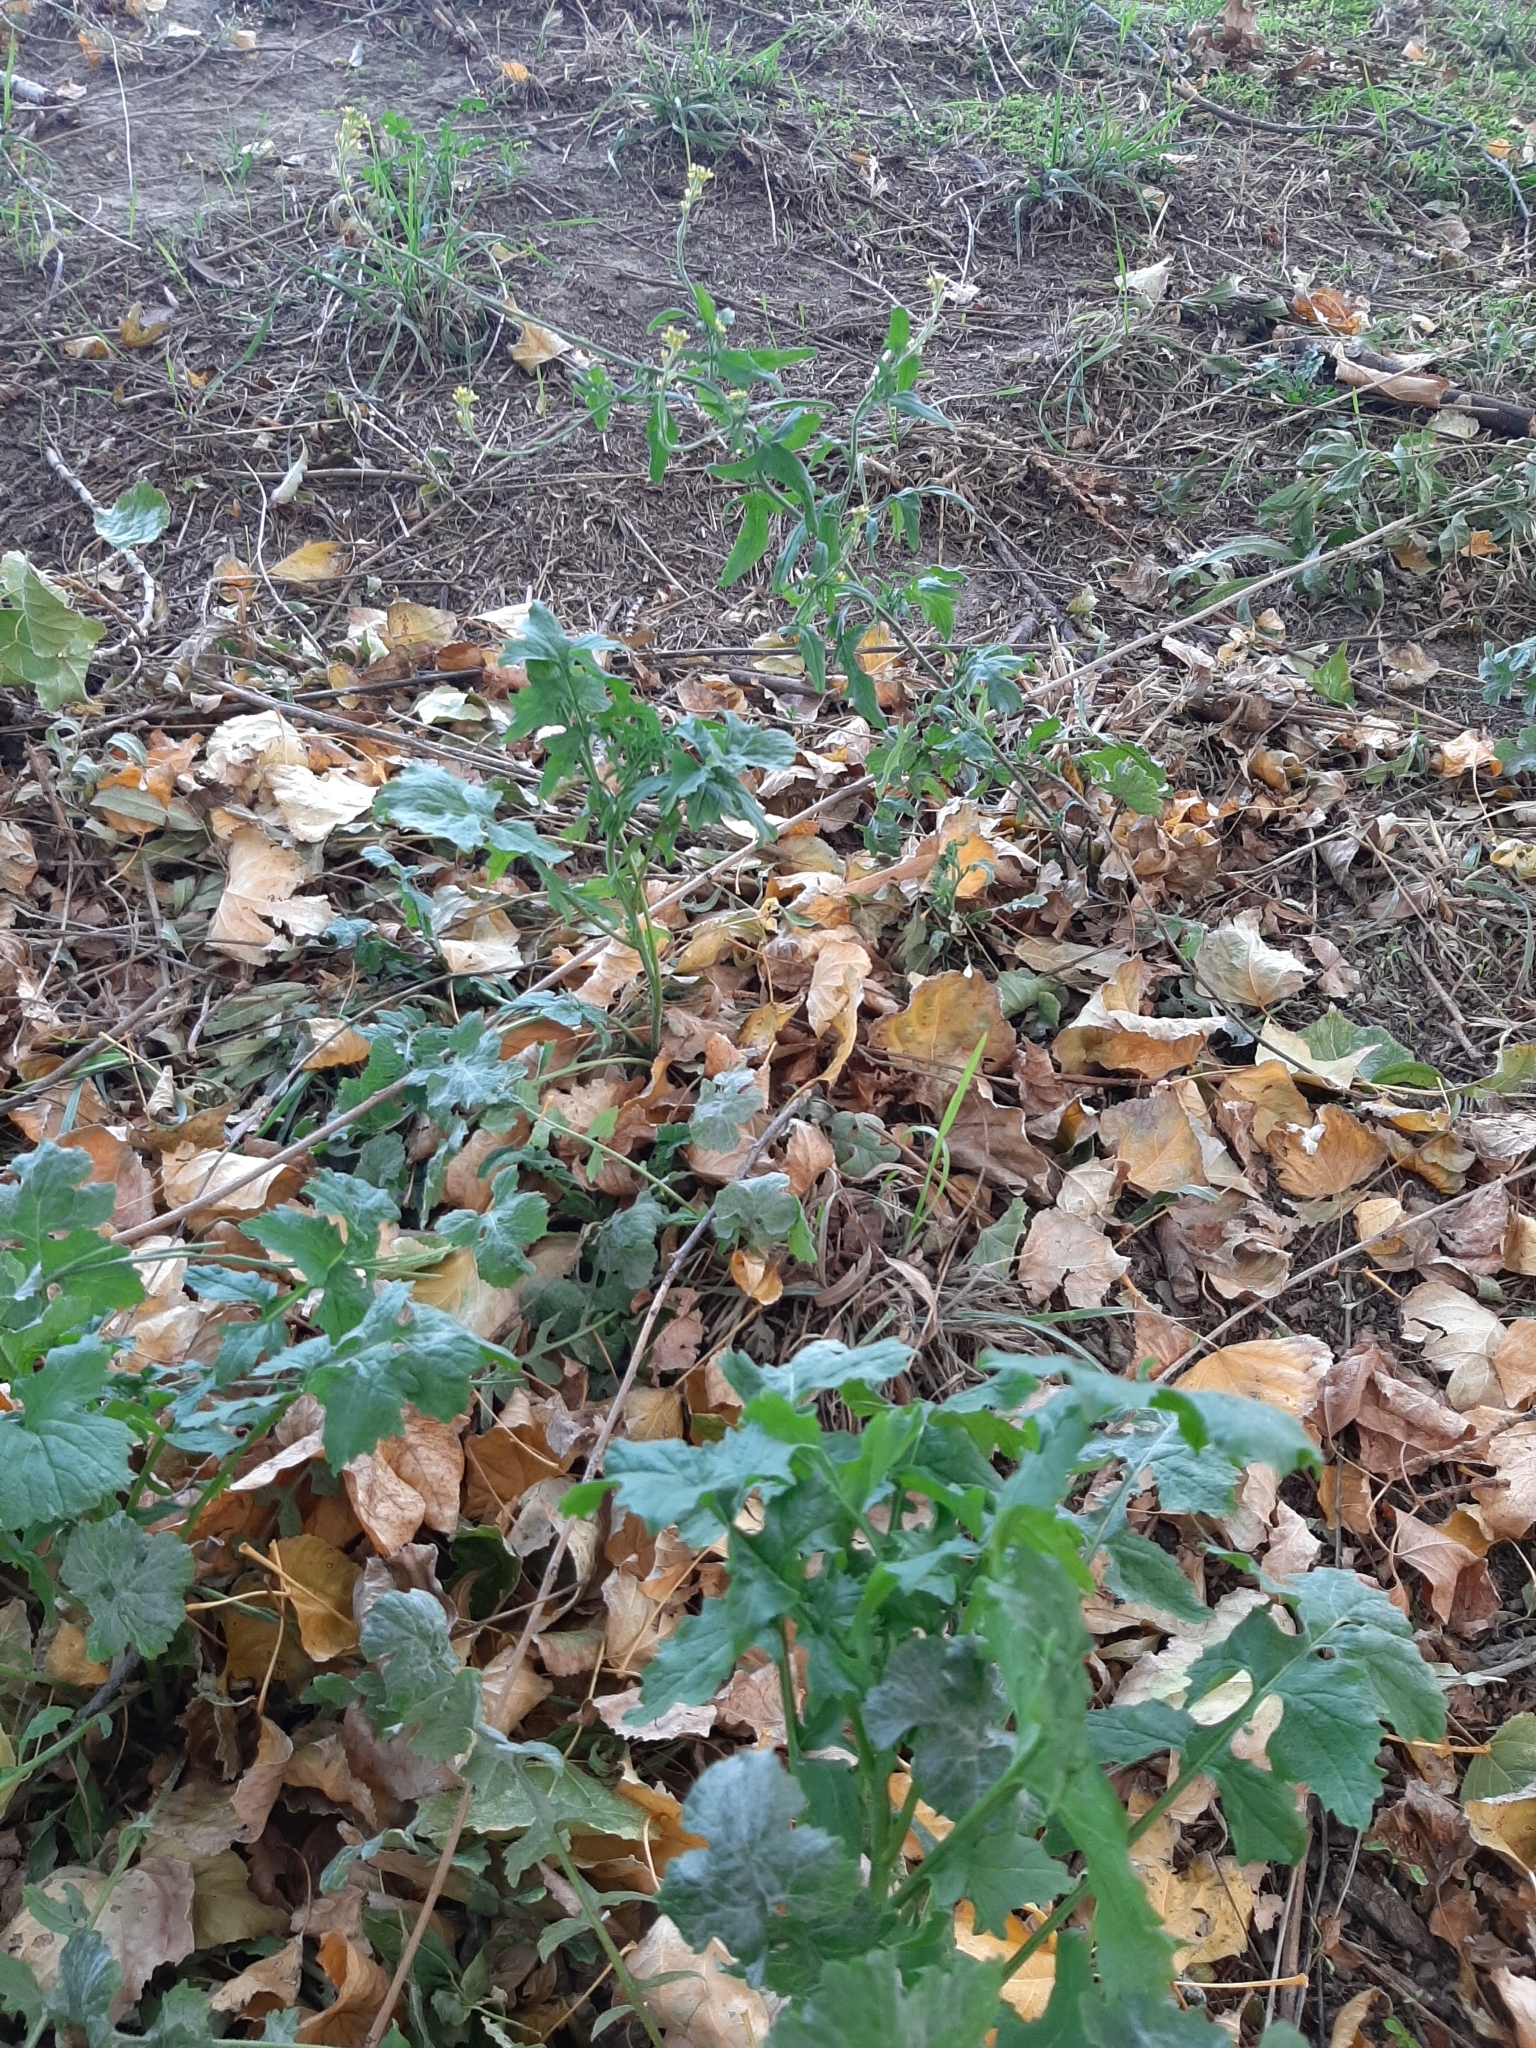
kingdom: Plantae
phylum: Tracheophyta
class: Magnoliopsida
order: Brassicales
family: Brassicaceae
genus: Sisymbrium
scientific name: Sisymbrium officinale
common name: Hedge mustard
